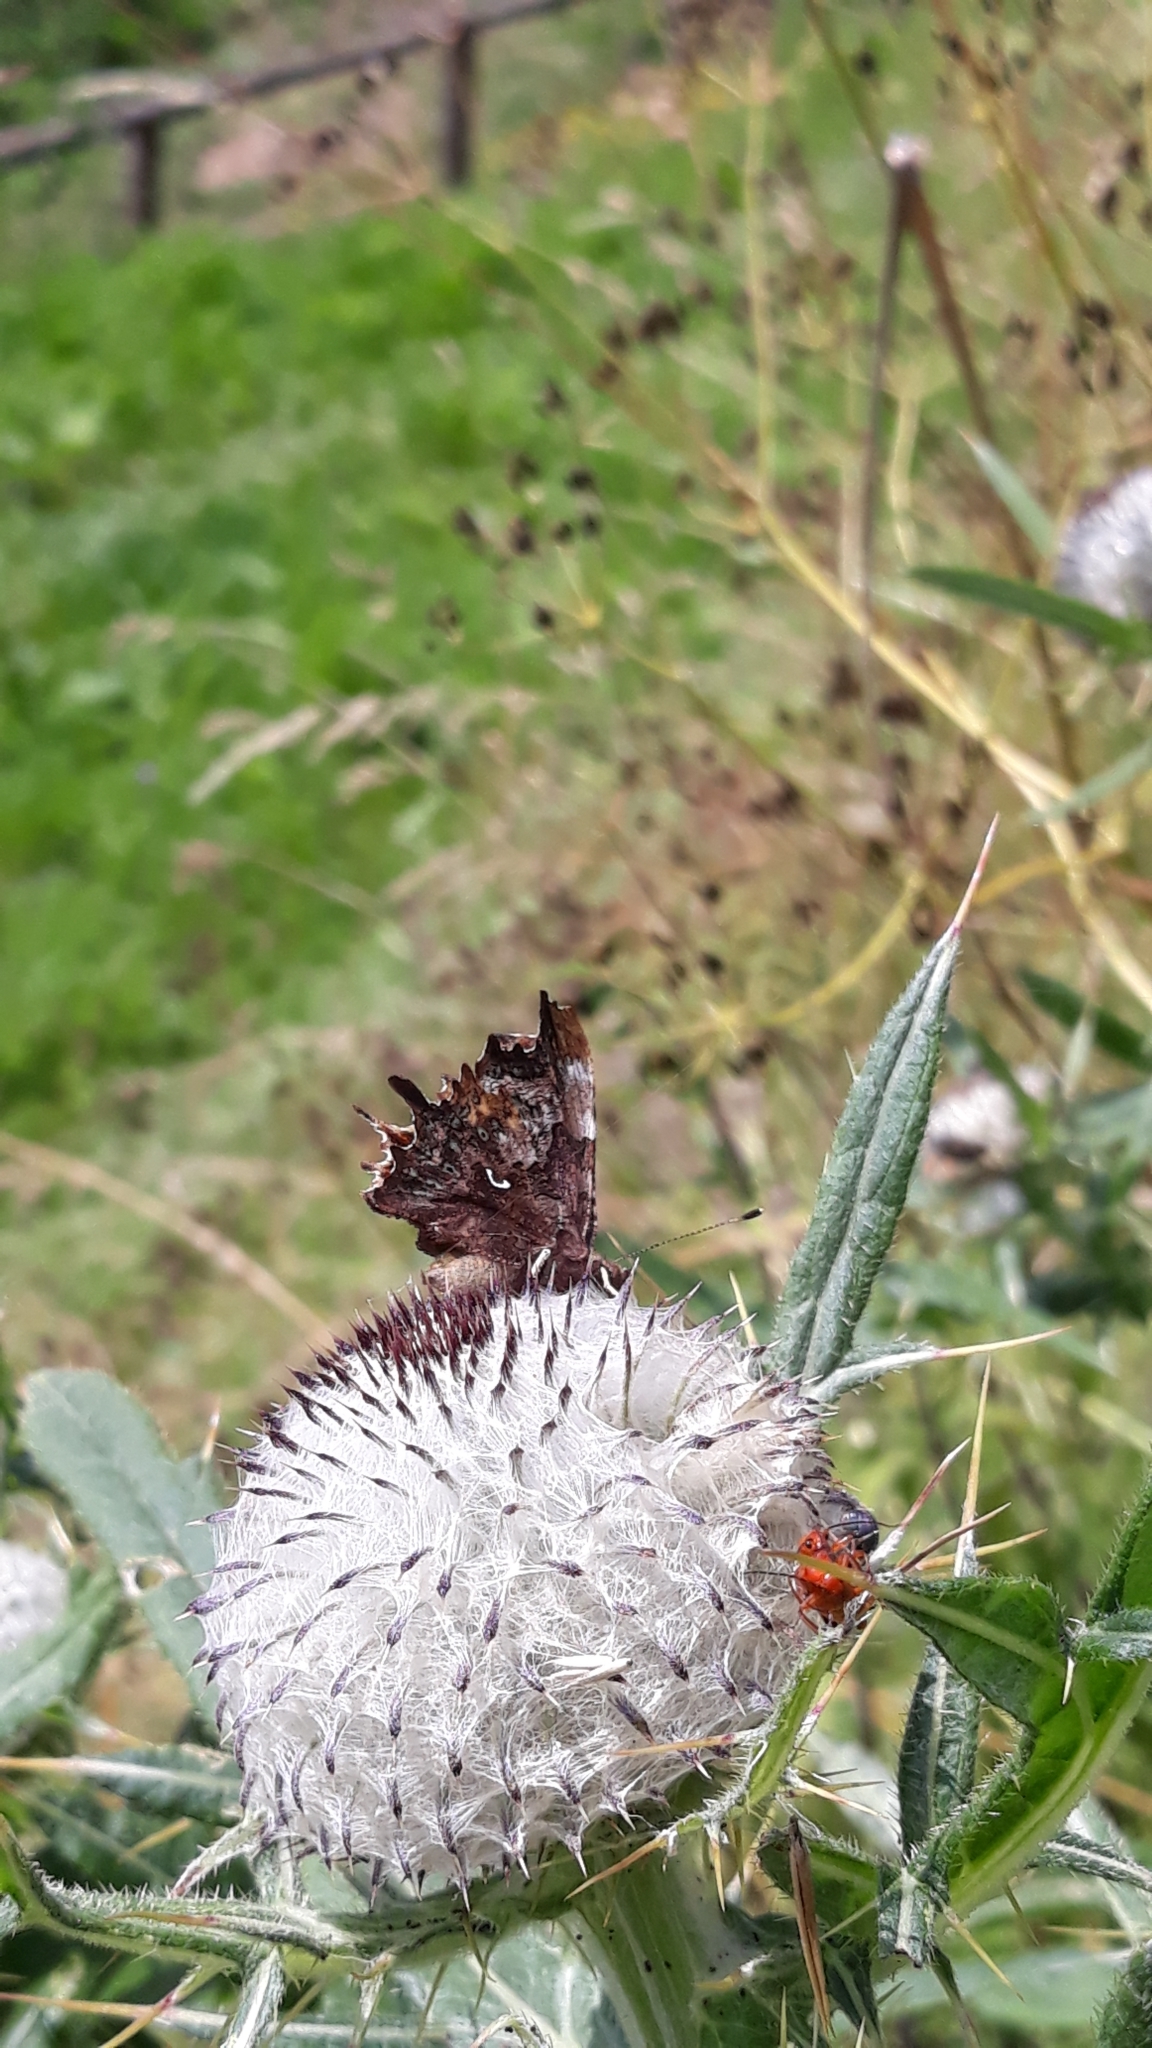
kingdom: Animalia
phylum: Arthropoda
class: Insecta
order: Lepidoptera
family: Nymphalidae
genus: Polygonia
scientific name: Polygonia c-album
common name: Comma
